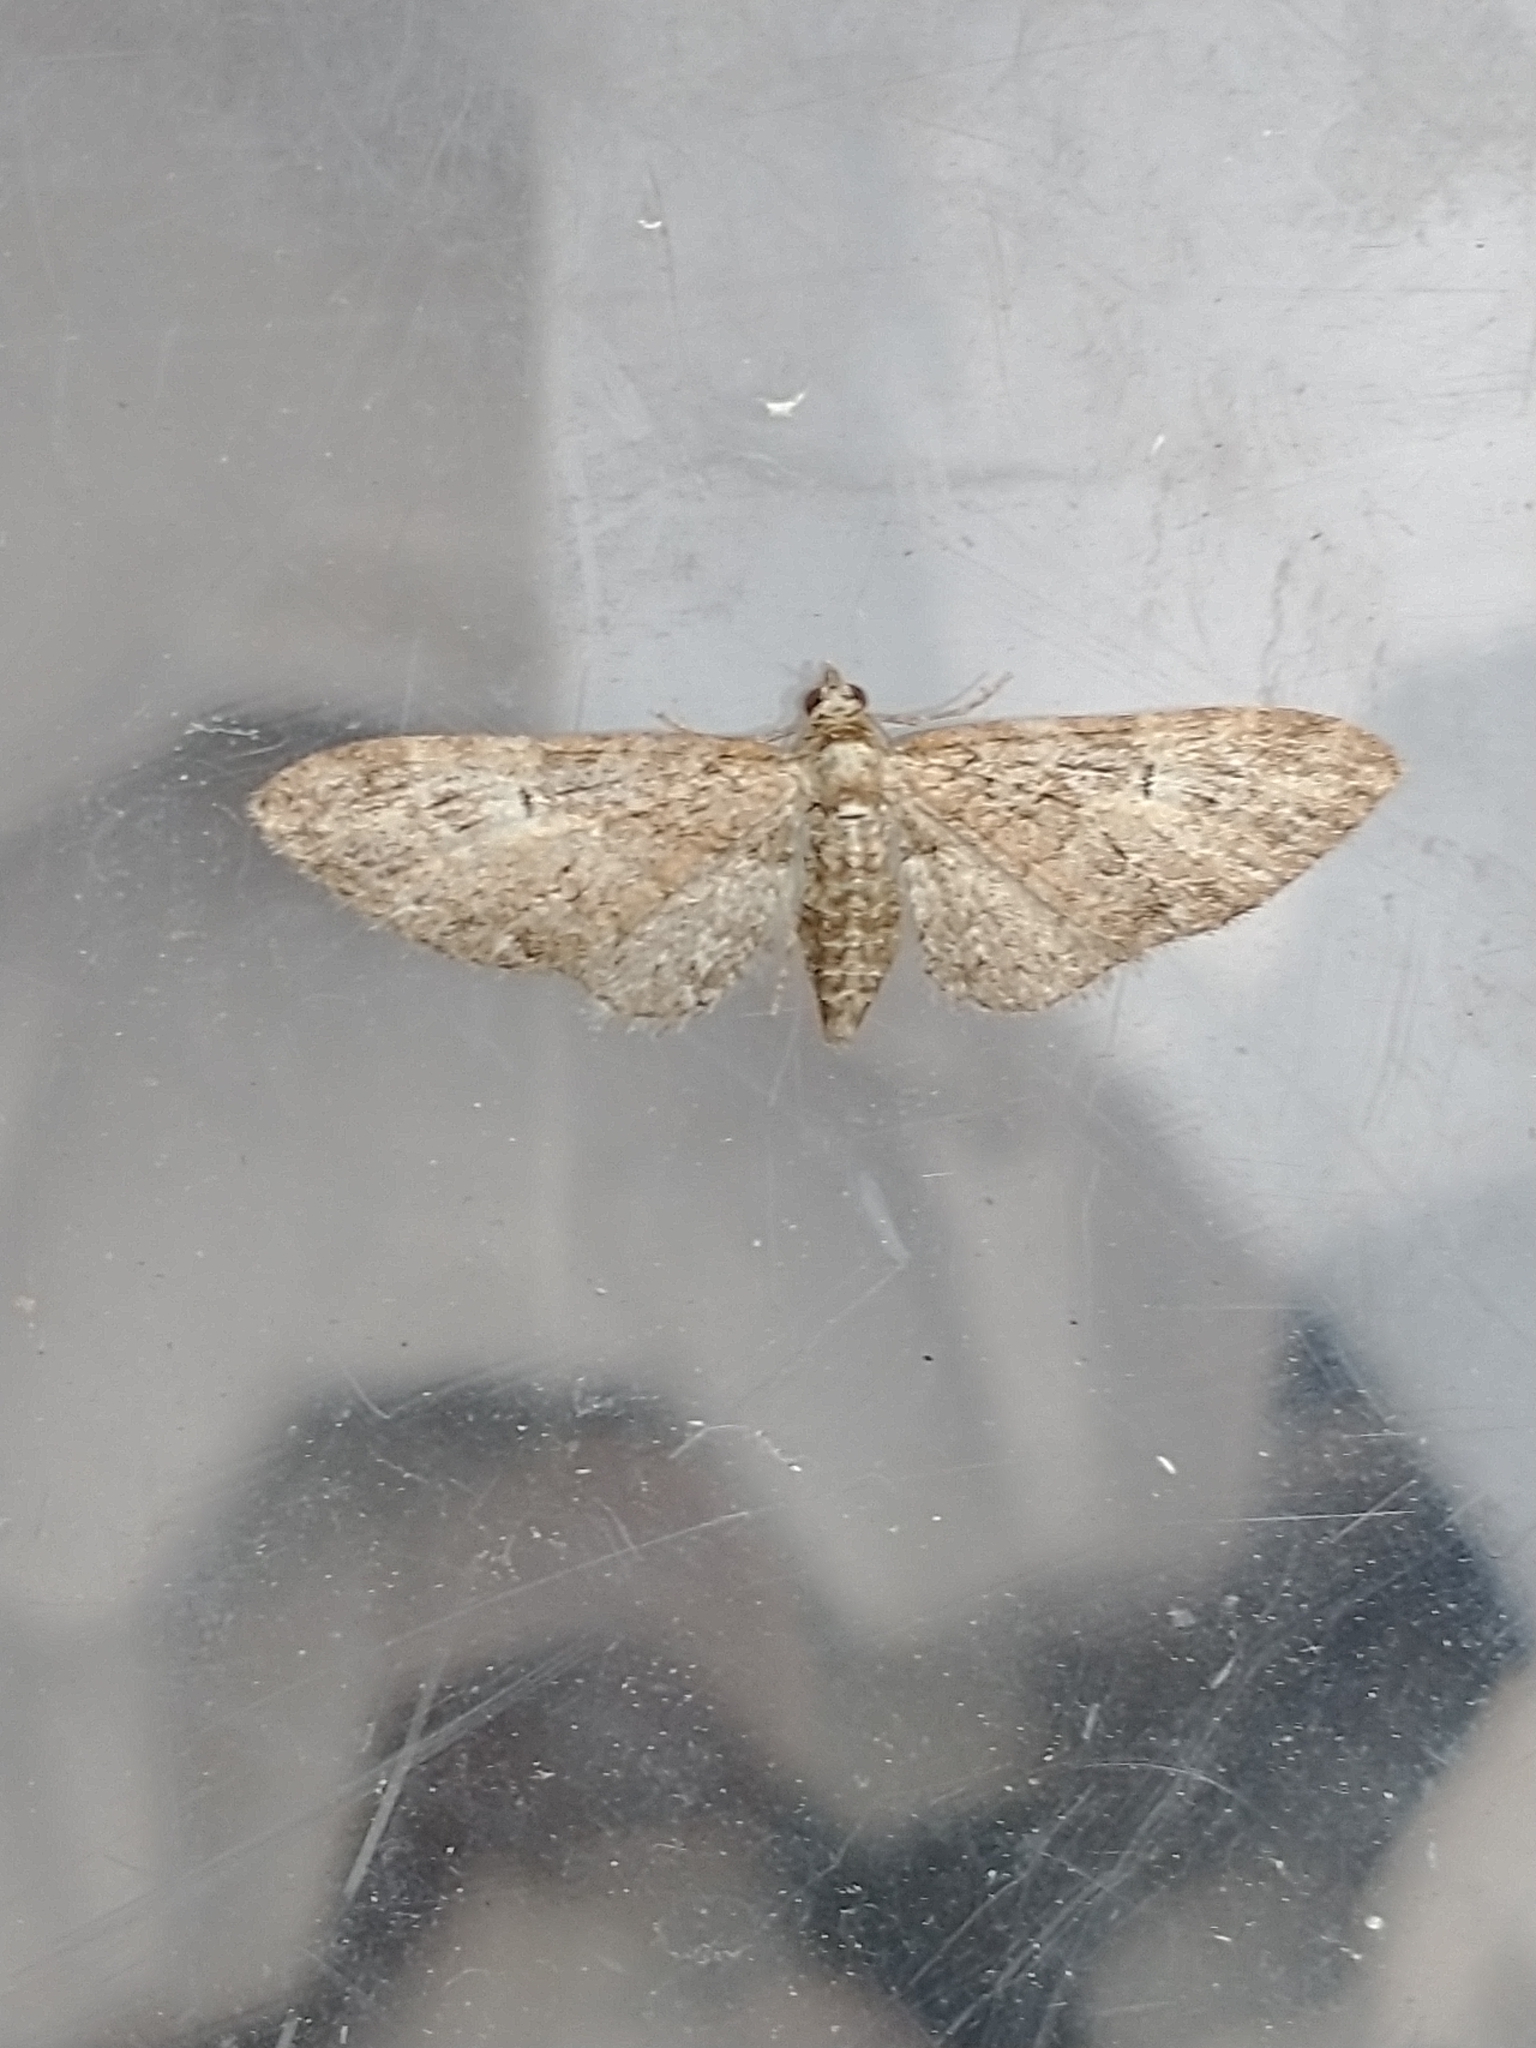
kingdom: Animalia
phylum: Arthropoda
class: Insecta
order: Lepidoptera
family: Geometridae
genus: Eupithecia
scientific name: Eupithecia abbreviata
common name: Brindled pug
